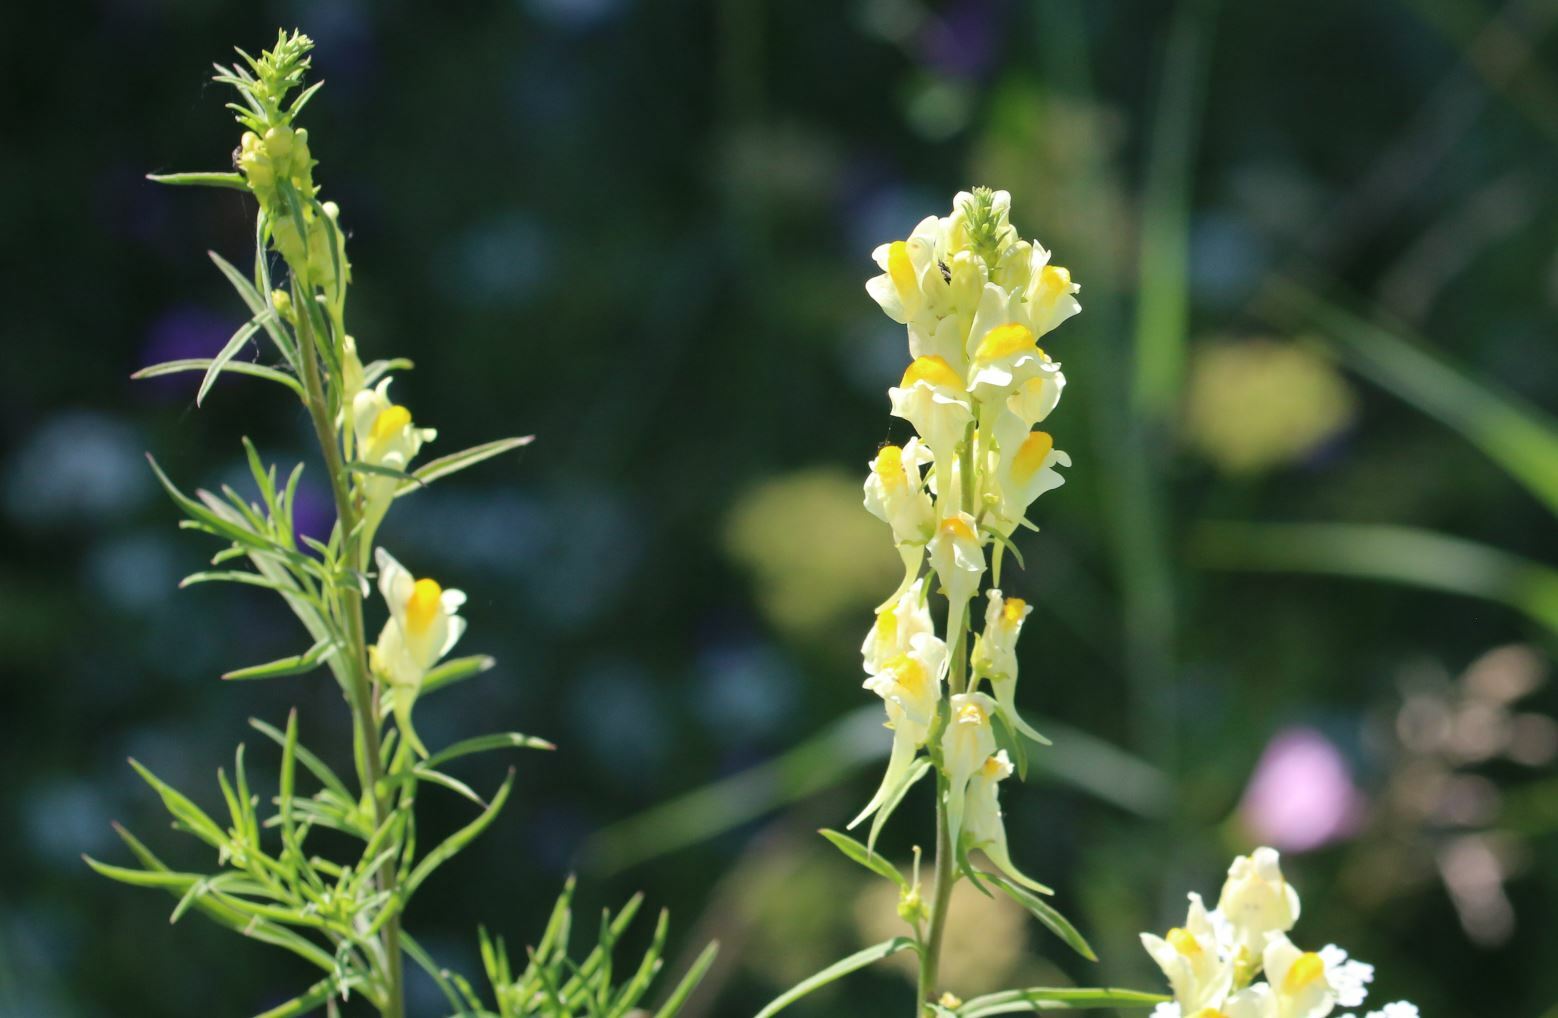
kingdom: Plantae
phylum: Tracheophyta
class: Magnoliopsida
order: Lamiales
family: Plantaginaceae
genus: Linaria
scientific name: Linaria vulgaris
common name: Butter and eggs
